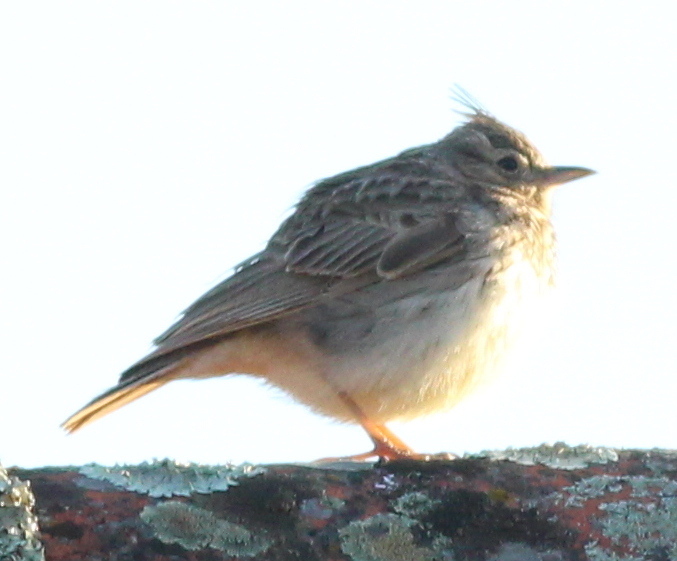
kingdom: Animalia
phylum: Chordata
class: Aves
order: Passeriformes
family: Alaudidae
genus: Galerida
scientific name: Galerida theklae
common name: Thekla lark
